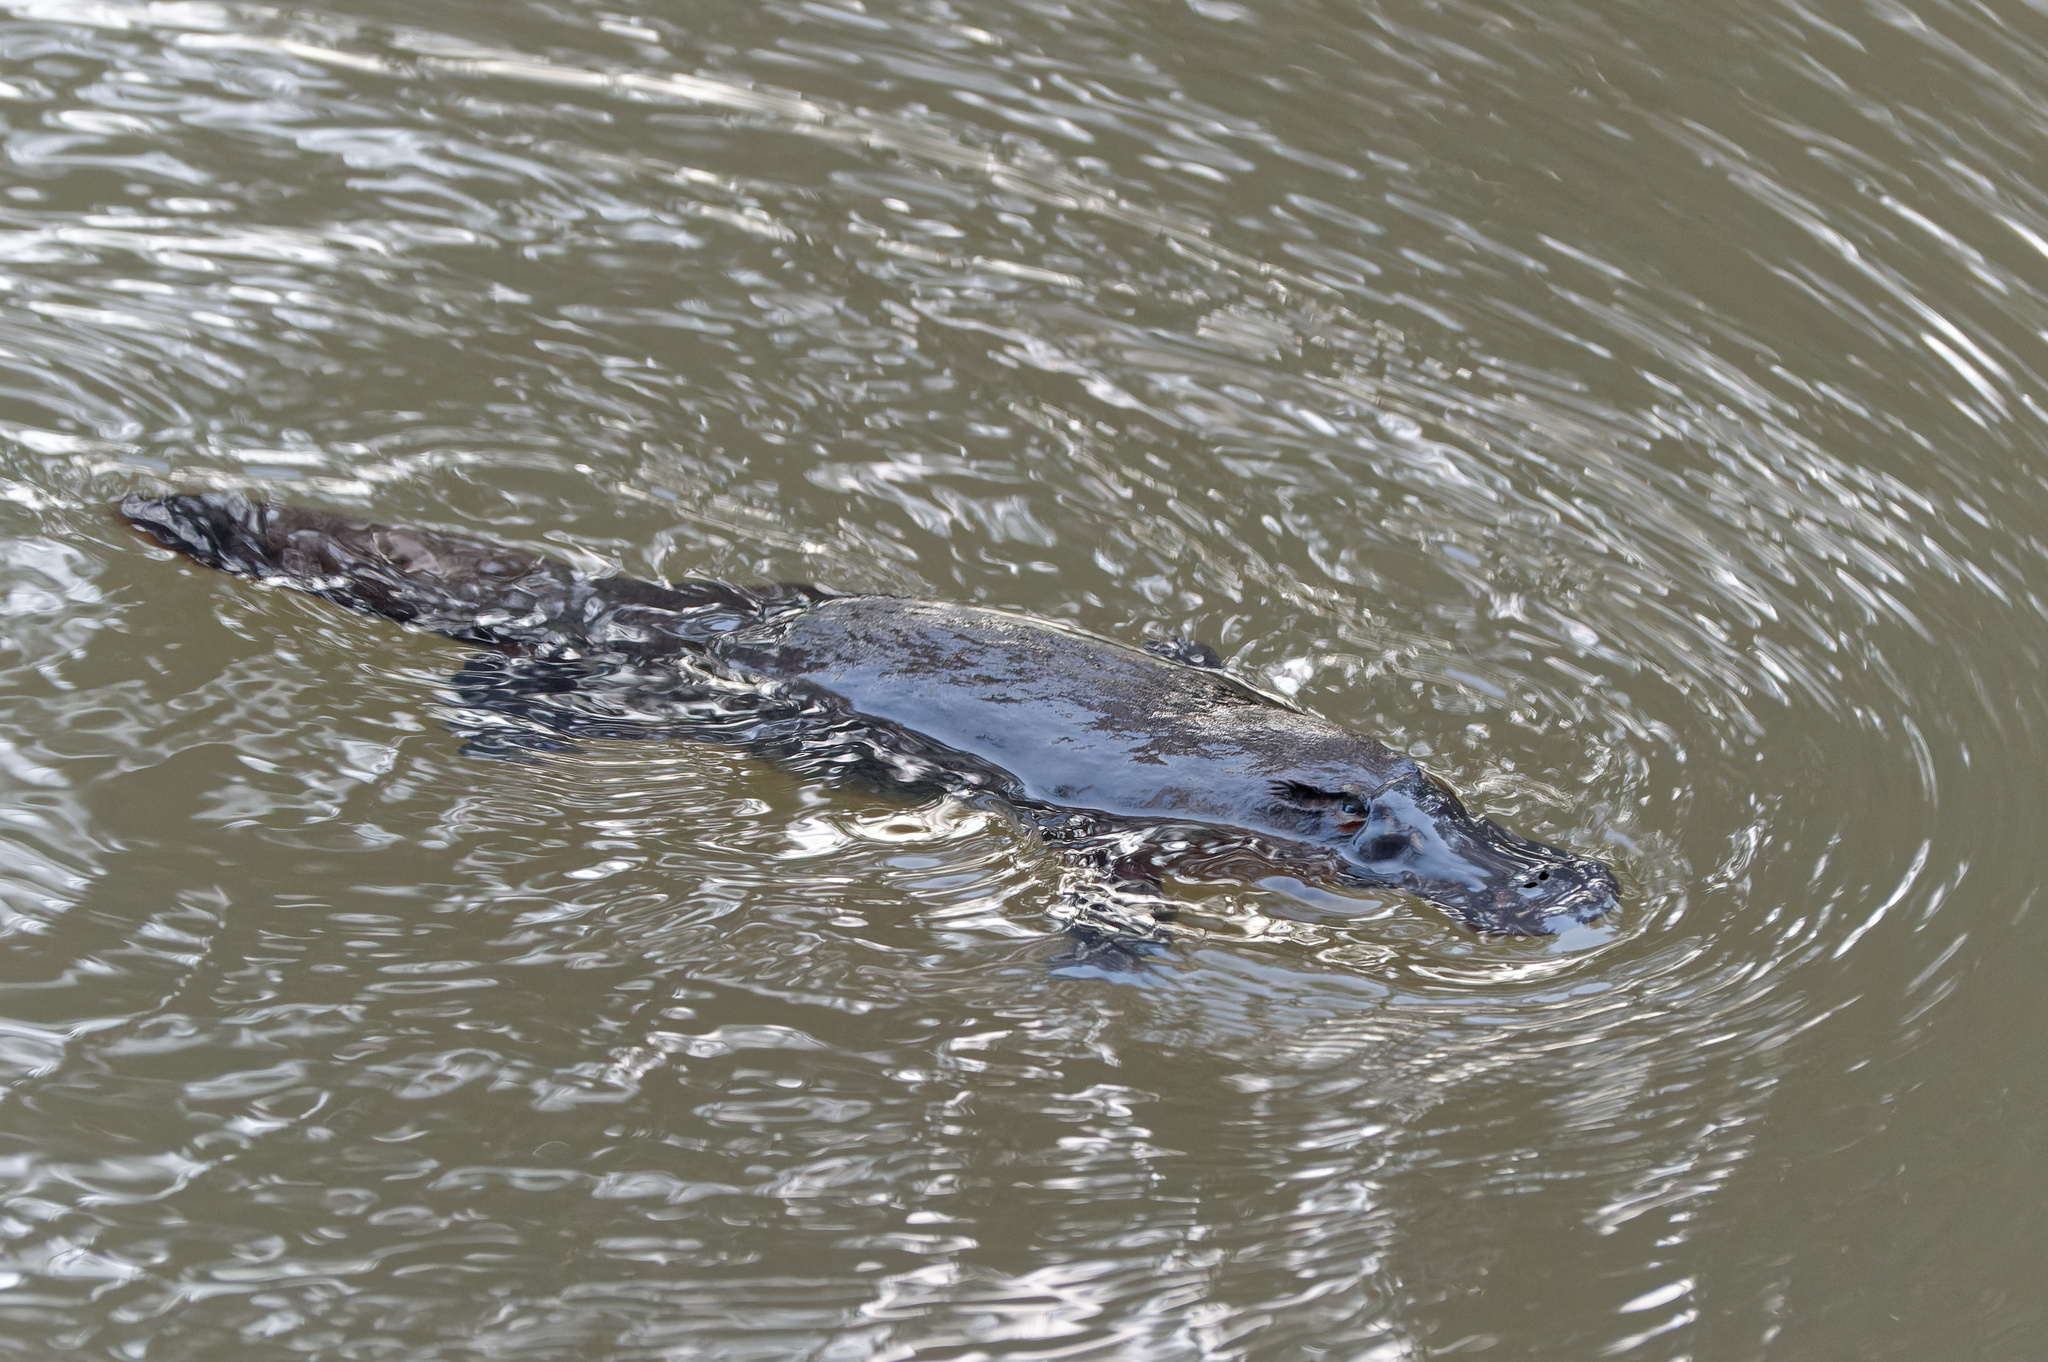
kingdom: Animalia
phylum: Chordata
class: Mammalia
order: Monotremata
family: Ornithorhynchidae
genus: Ornithorhynchus
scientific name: Ornithorhynchus anatinus
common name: Platypus
